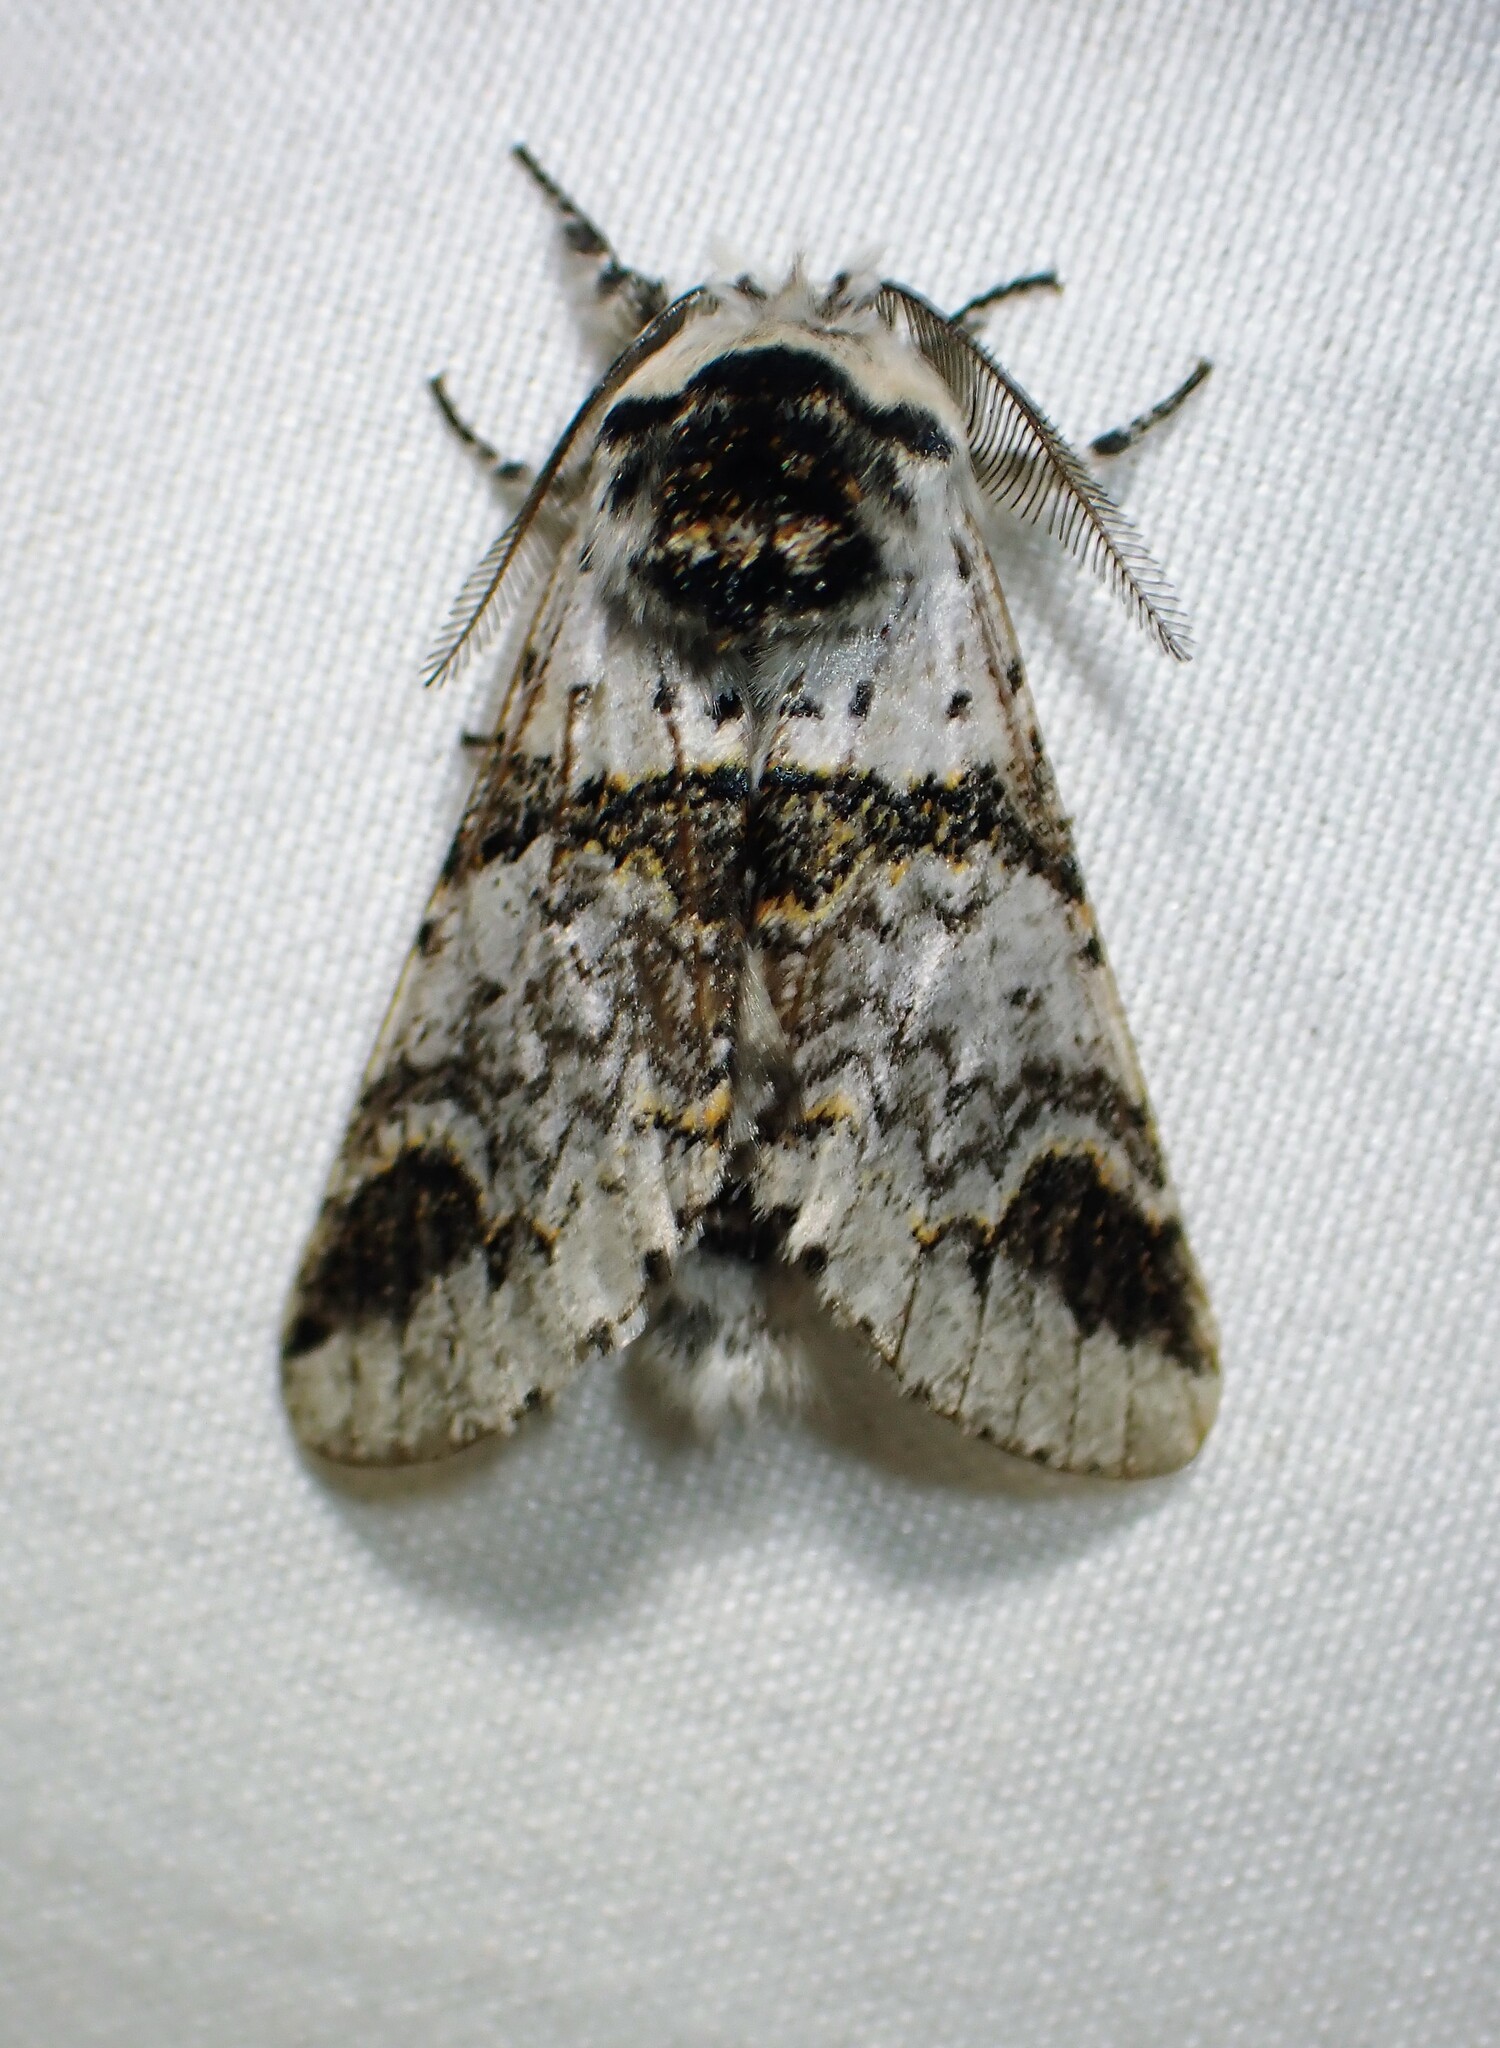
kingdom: Animalia
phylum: Arthropoda
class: Insecta
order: Lepidoptera
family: Notodontidae
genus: Furcula
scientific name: Furcula scolopendrina
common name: Zigzag furcula moth
